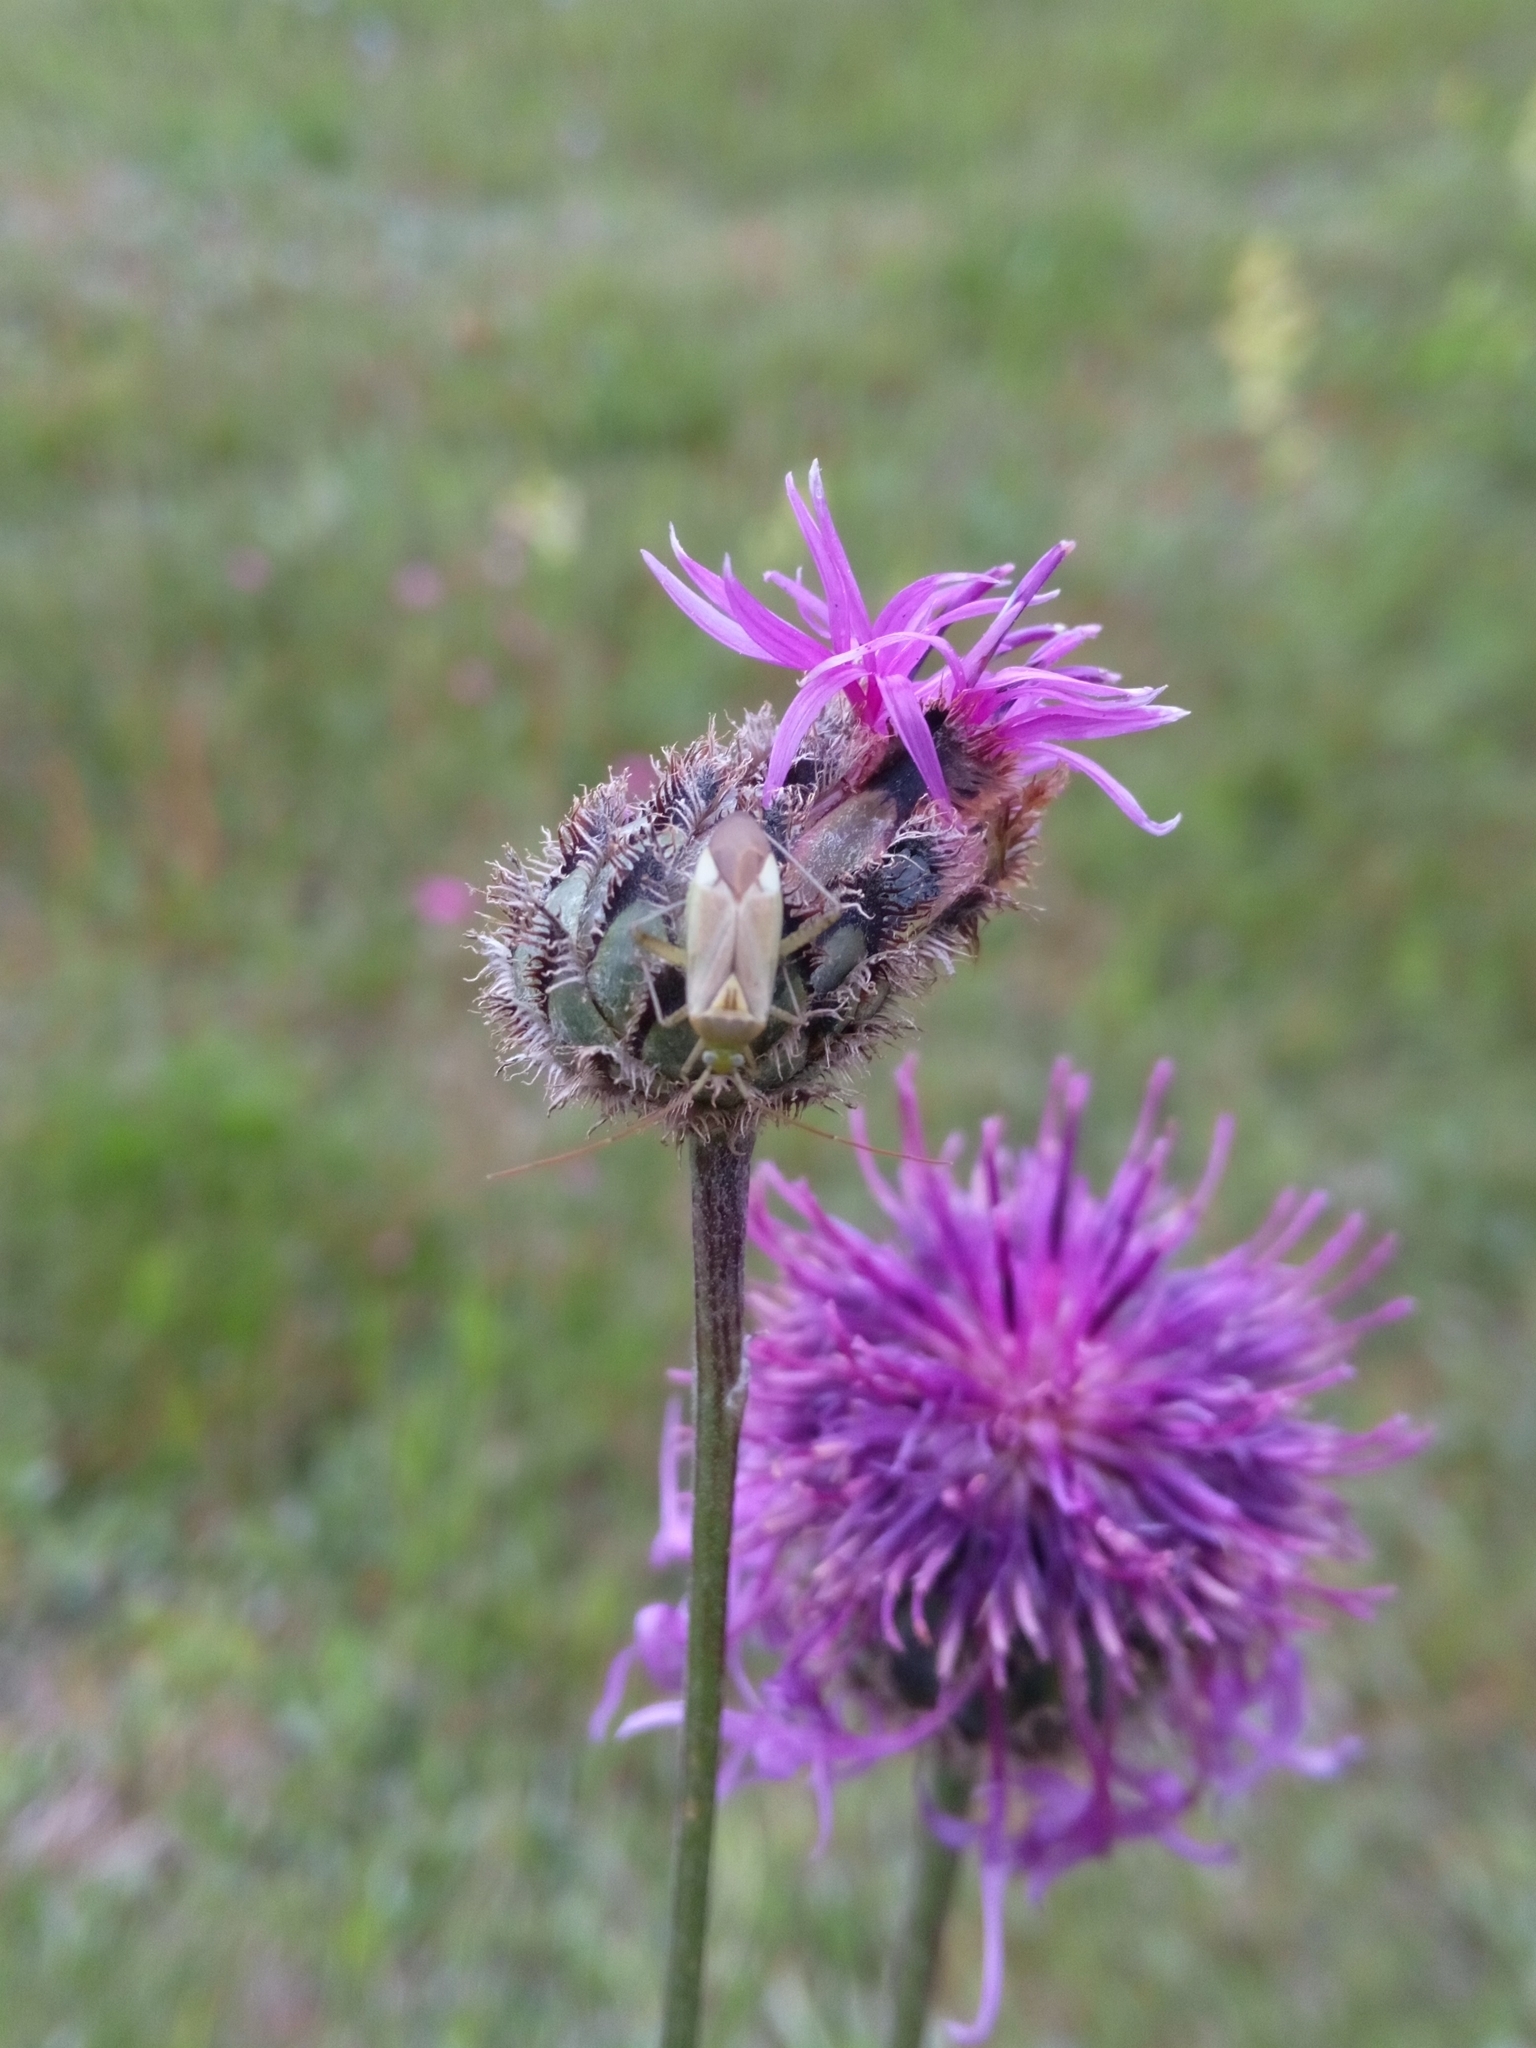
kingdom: Animalia
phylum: Arthropoda
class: Insecta
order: Hemiptera
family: Miridae
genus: Adelphocoris
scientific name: Adelphocoris lineolatus
